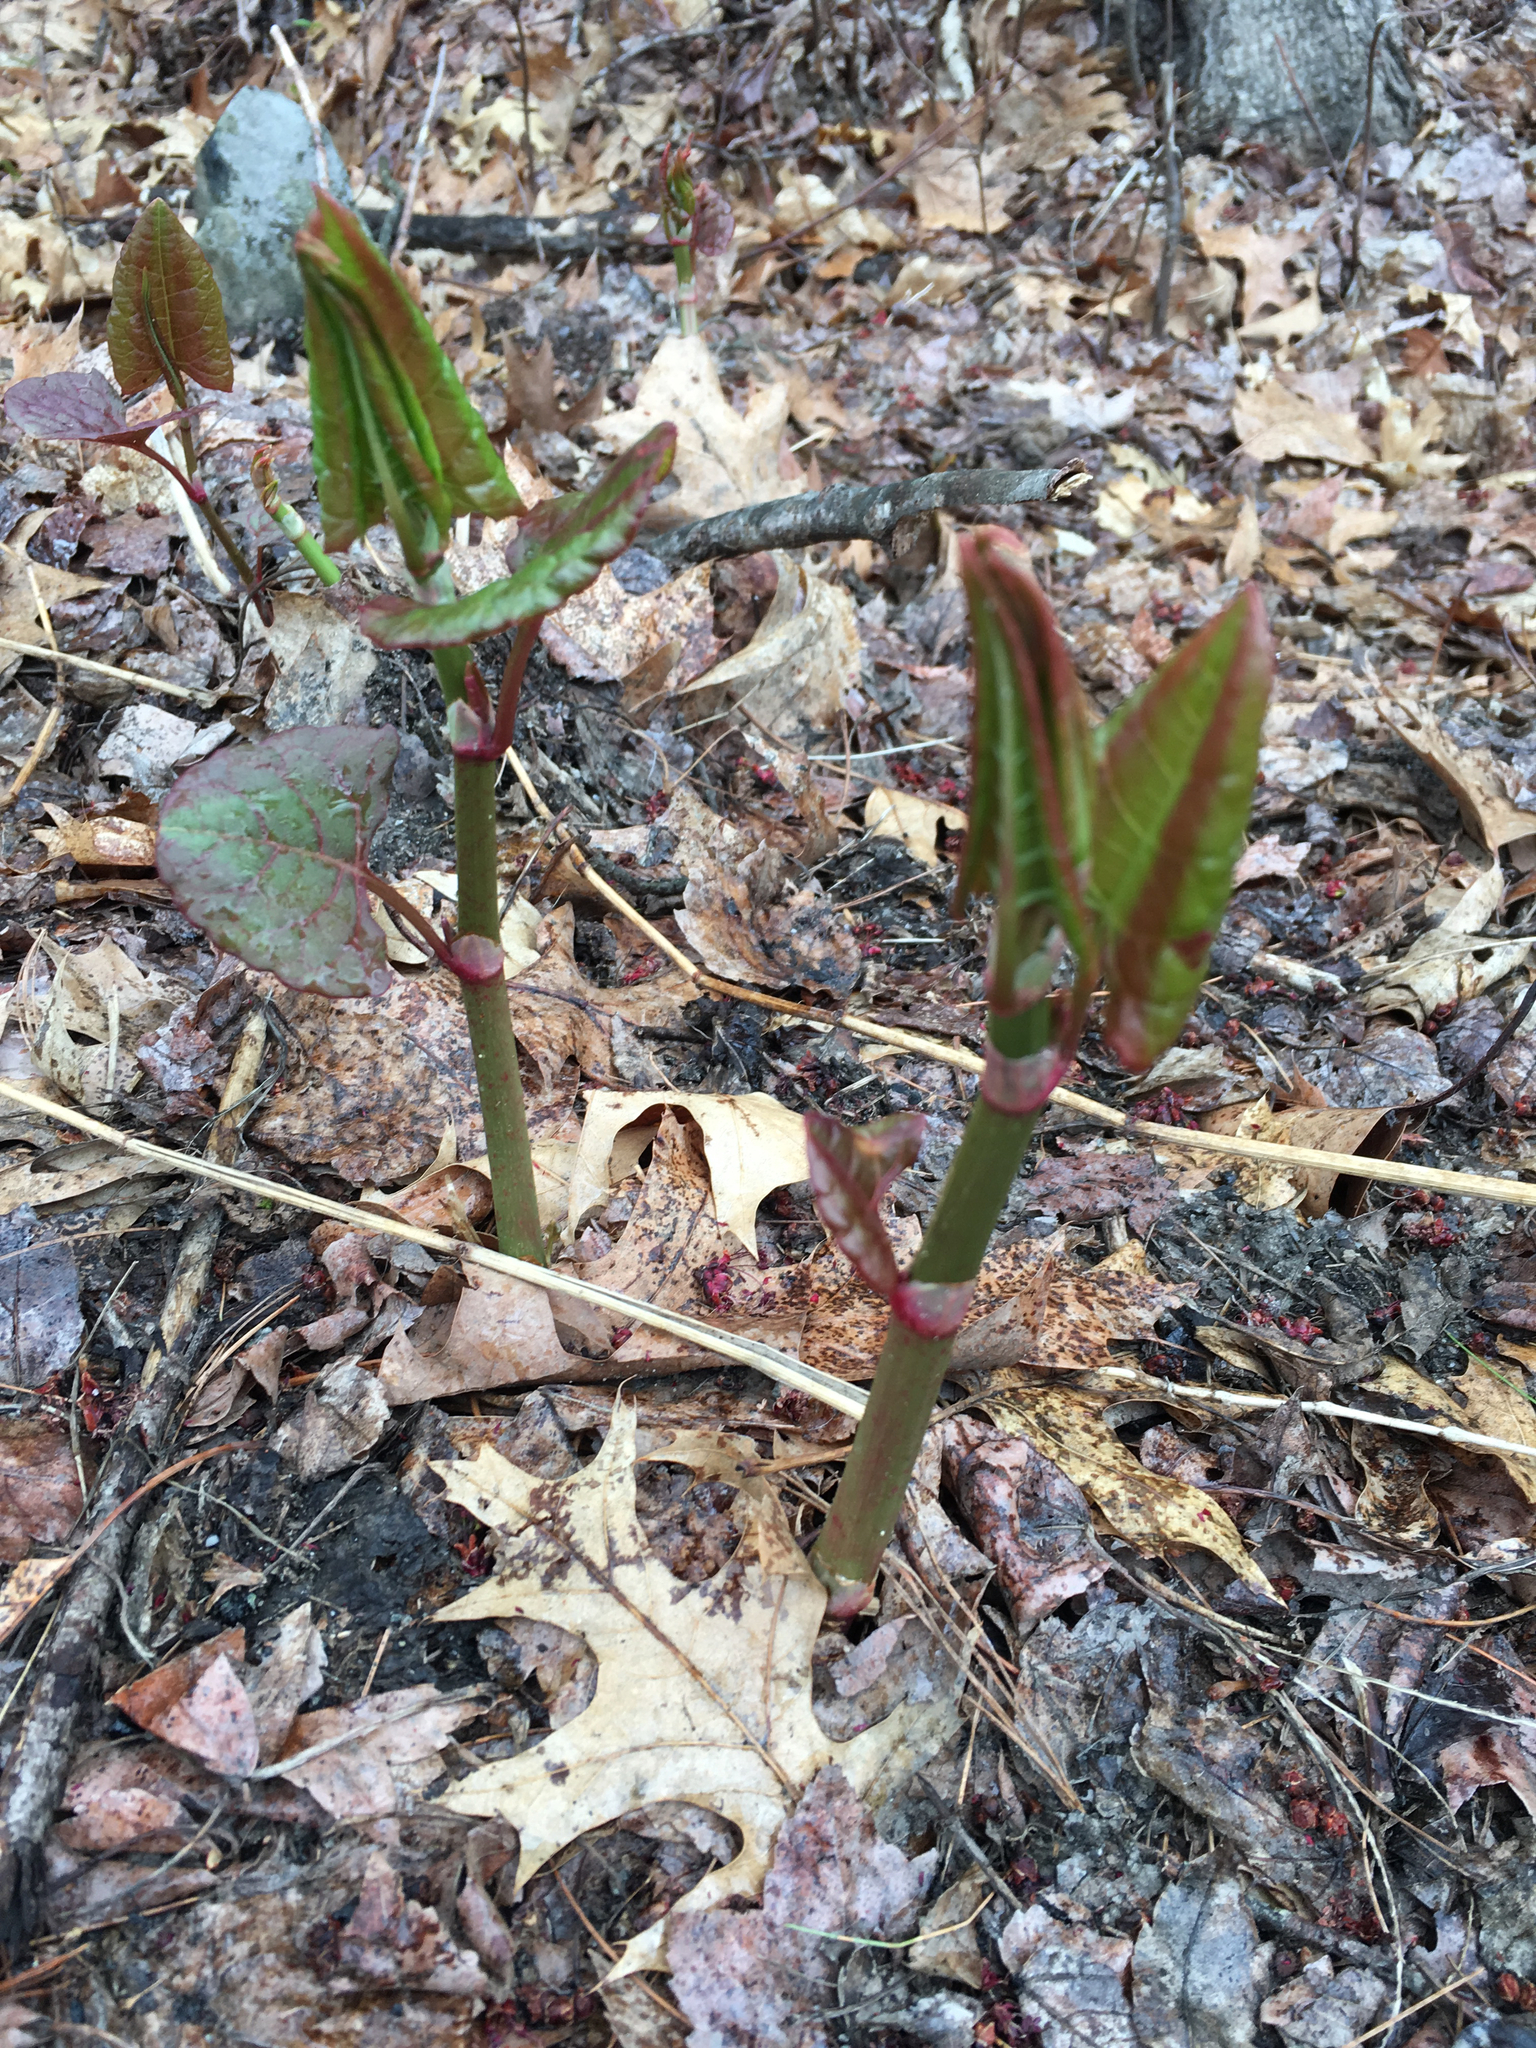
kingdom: Plantae
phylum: Tracheophyta
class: Magnoliopsida
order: Caryophyllales
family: Polygonaceae
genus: Reynoutria
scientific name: Reynoutria japonica
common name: Japanese knotweed
